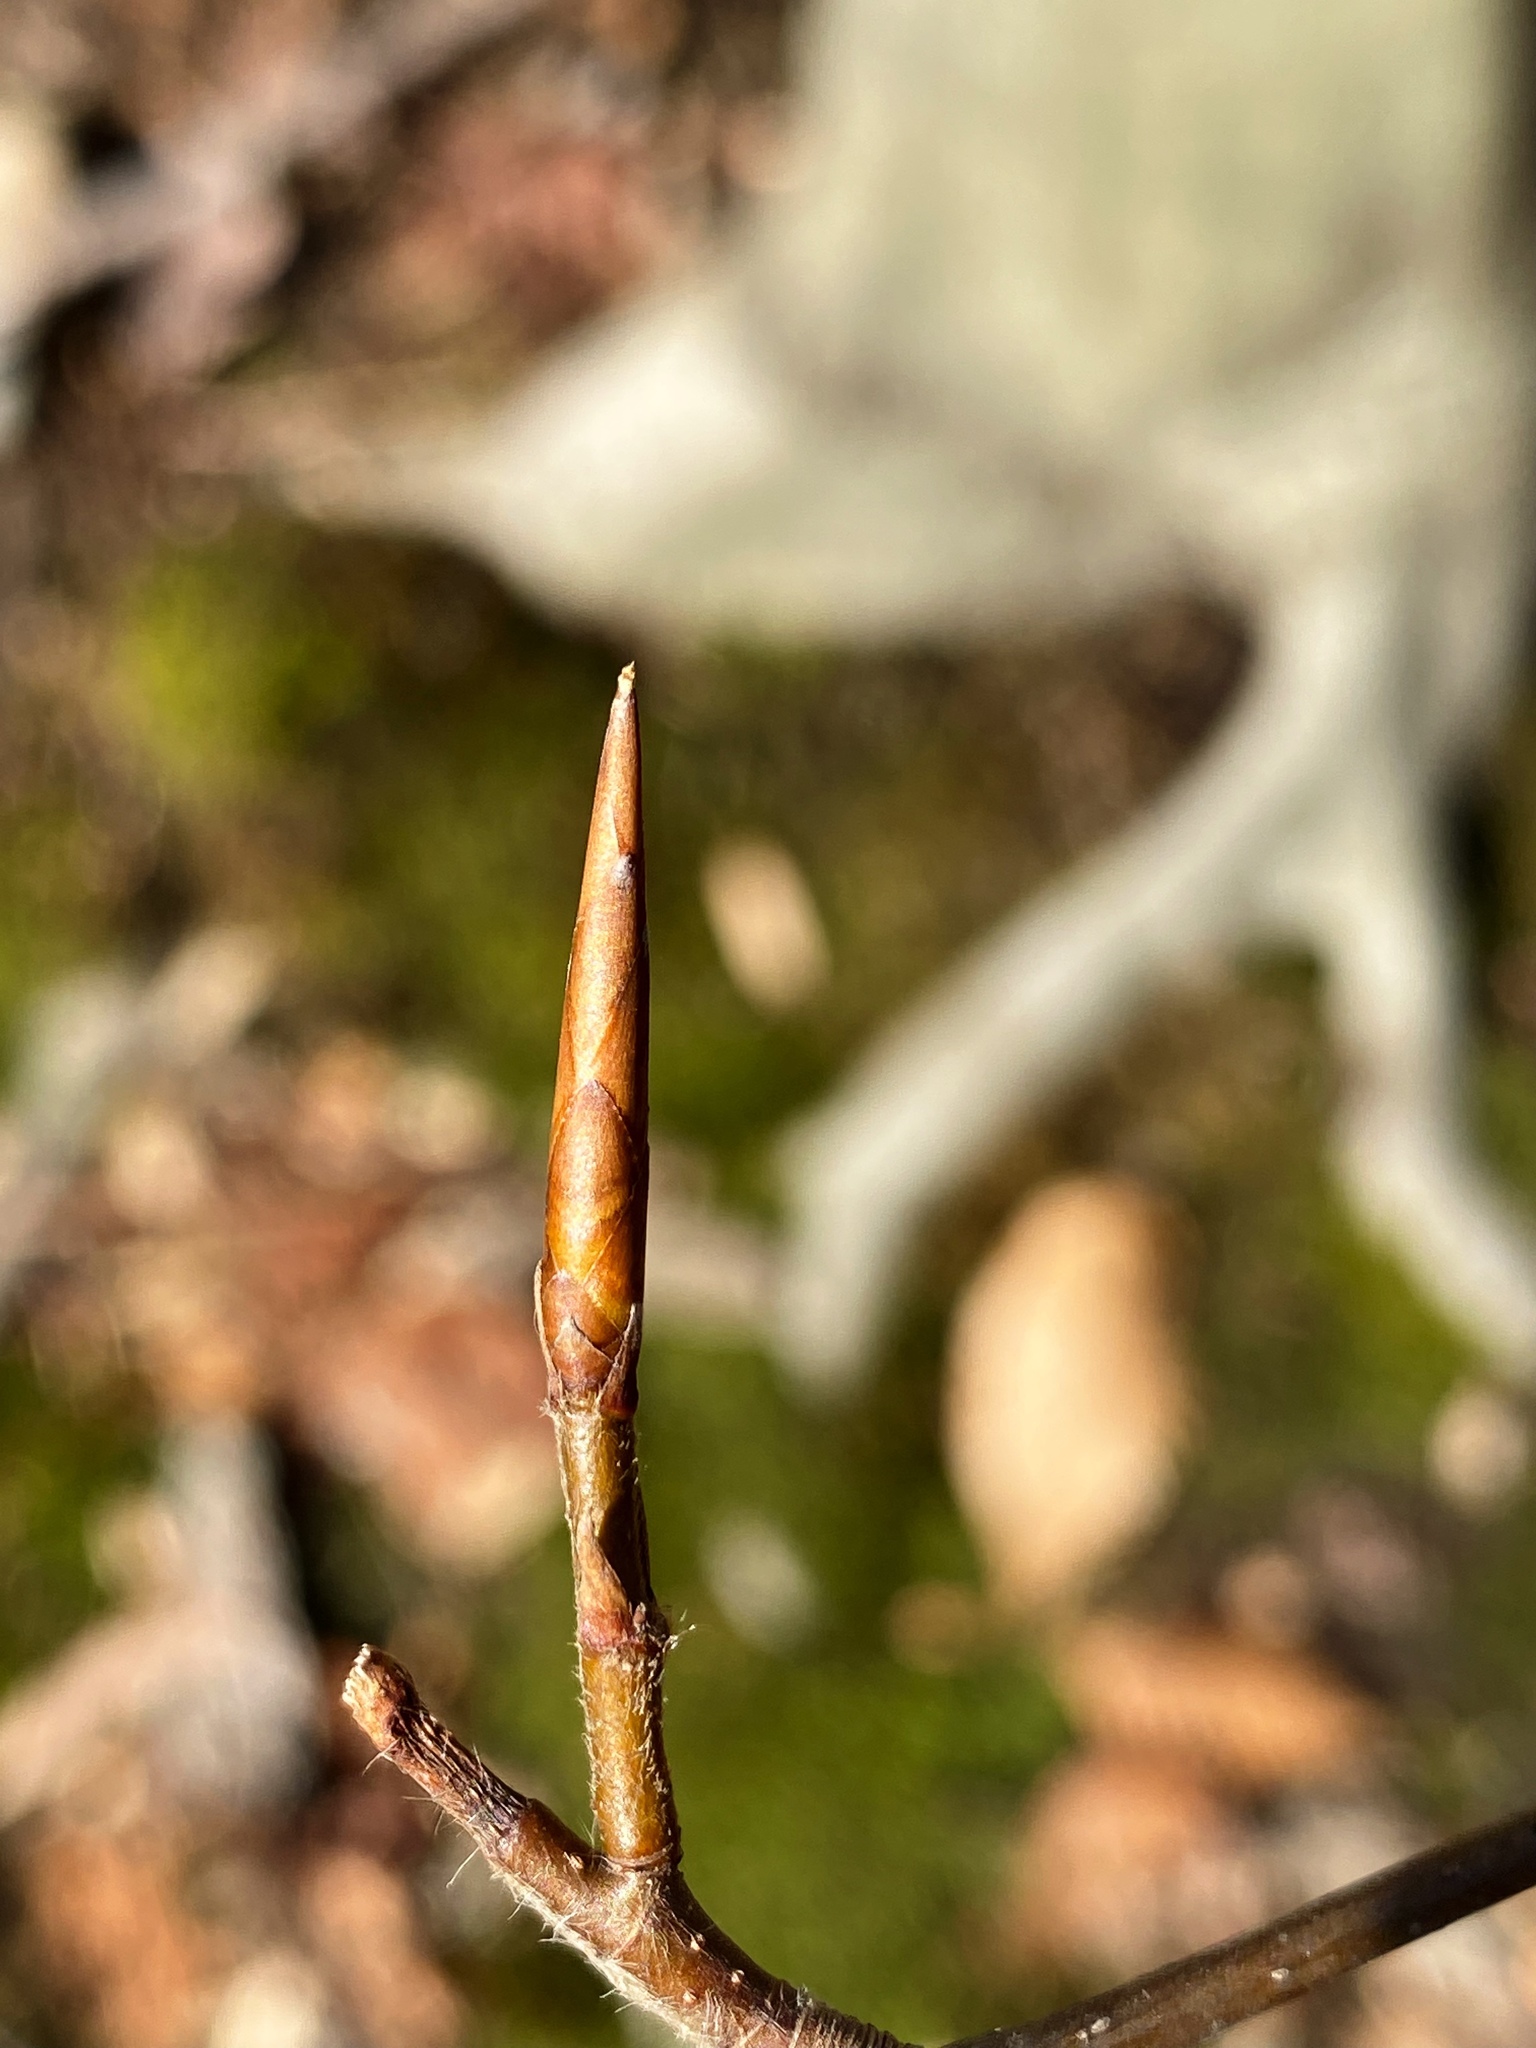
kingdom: Plantae
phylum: Tracheophyta
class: Magnoliopsida
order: Fagales
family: Fagaceae
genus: Fagus
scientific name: Fagus grandifolia
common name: American beech
